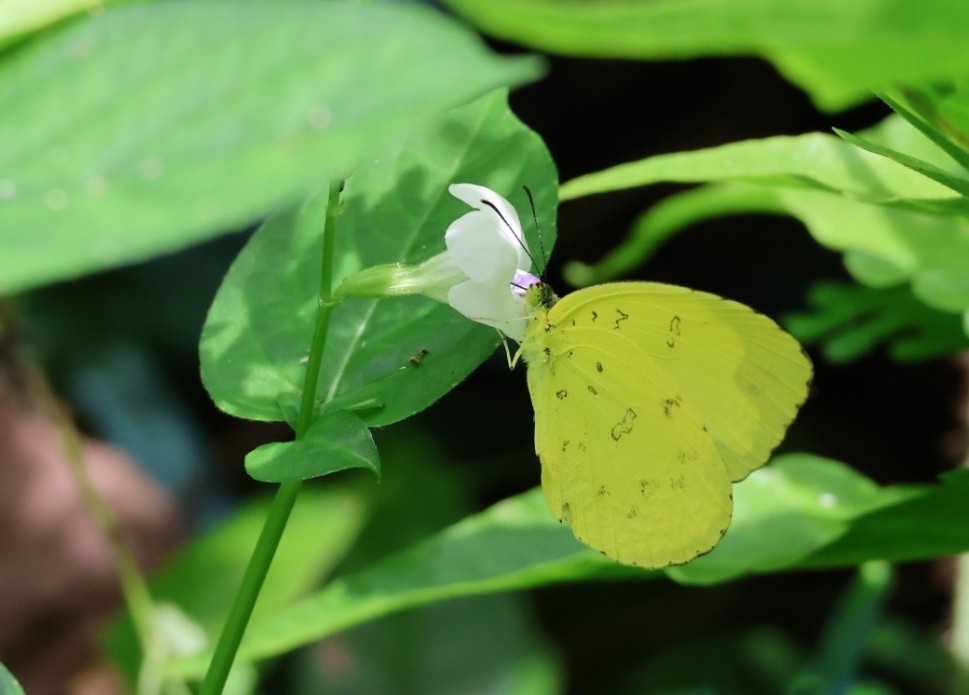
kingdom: Animalia
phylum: Arthropoda
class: Insecta
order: Lepidoptera
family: Pieridae
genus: Eurema
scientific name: Eurema blanda
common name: Three-spot grass yellow
